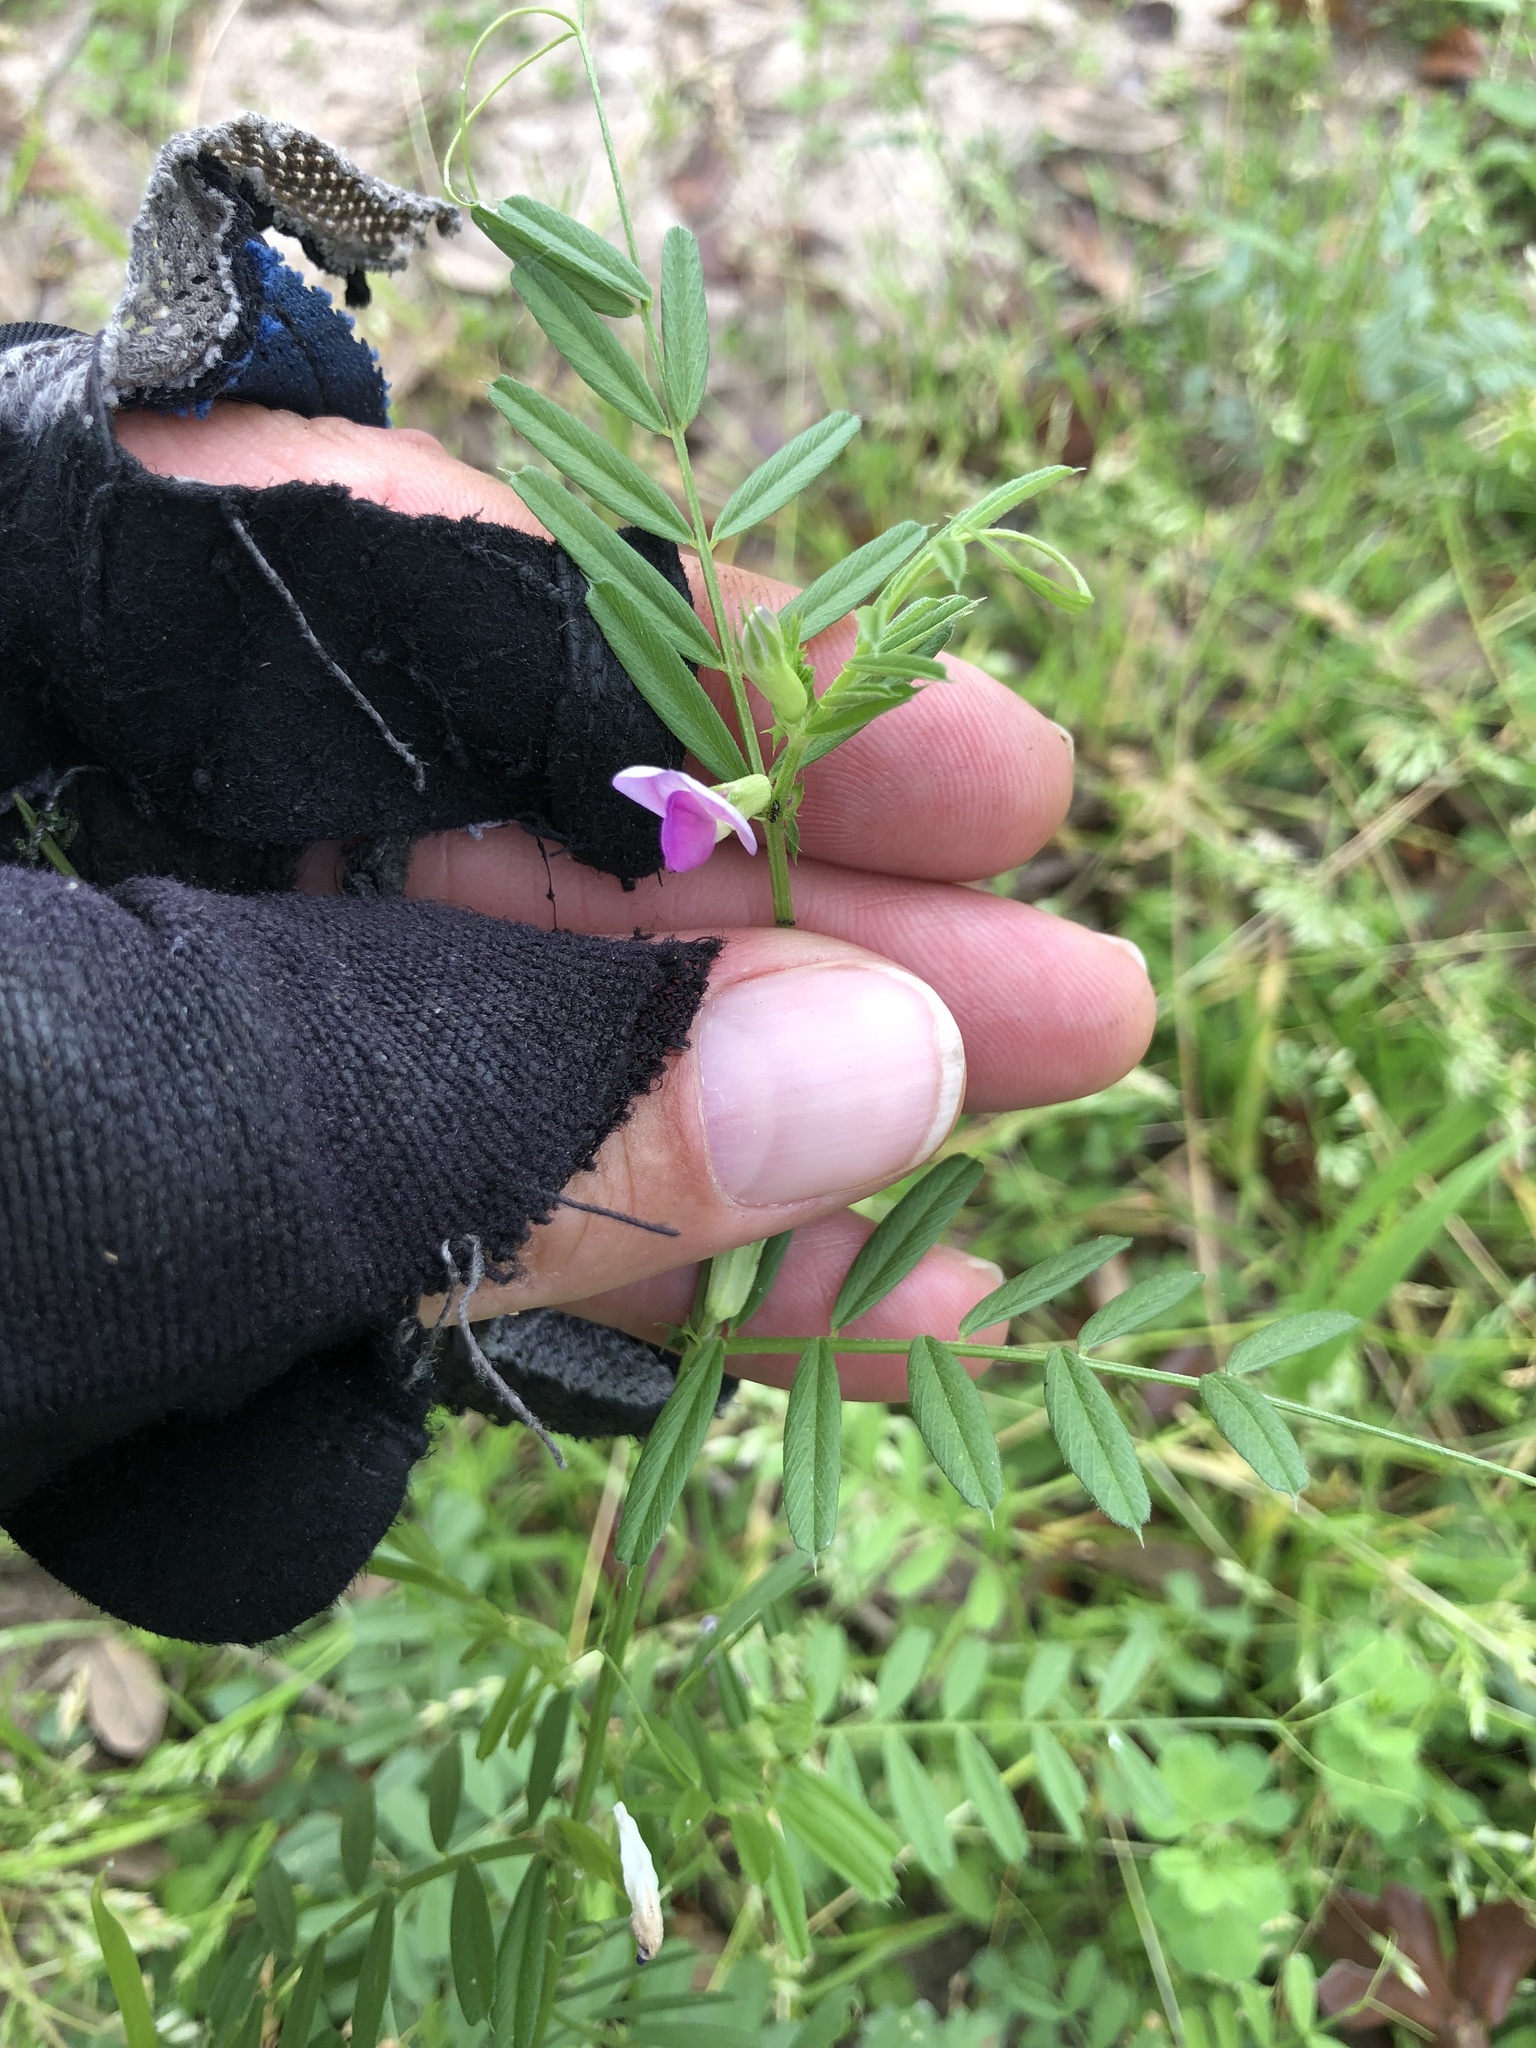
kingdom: Plantae
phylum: Tracheophyta
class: Magnoliopsida
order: Fabales
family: Fabaceae
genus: Vicia
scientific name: Vicia sativa
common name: Garden vetch
